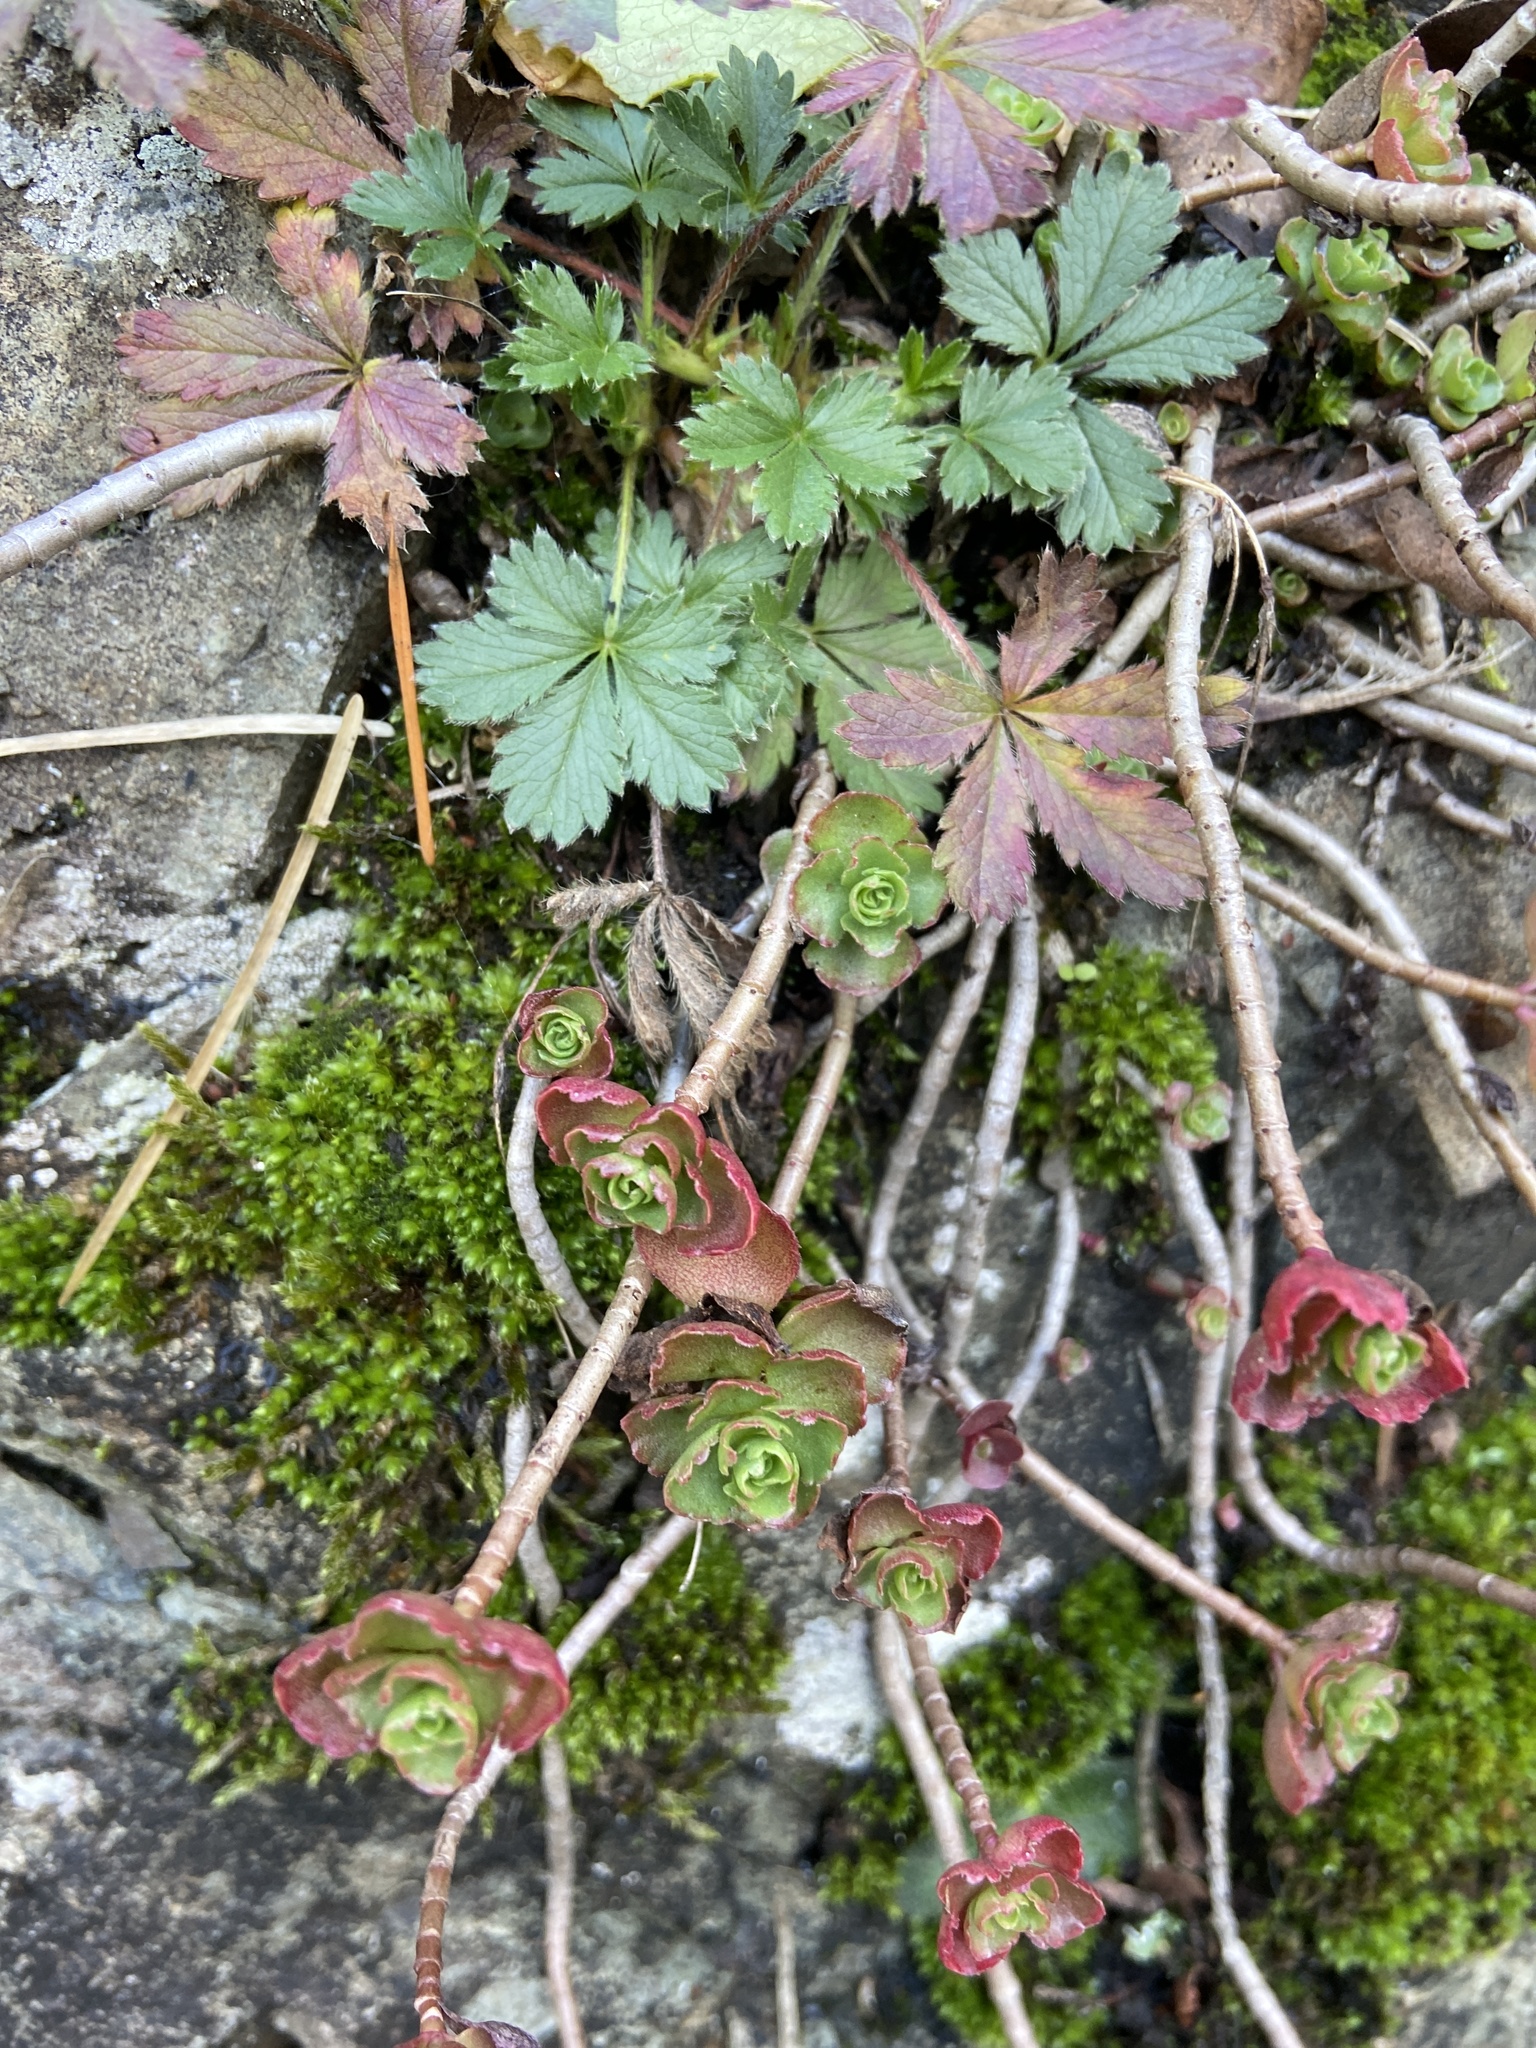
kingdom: Plantae
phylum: Tracheophyta
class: Magnoliopsida
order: Saxifragales
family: Crassulaceae
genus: Phedimus
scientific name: Phedimus spurius
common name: Caucasian stonecrop
